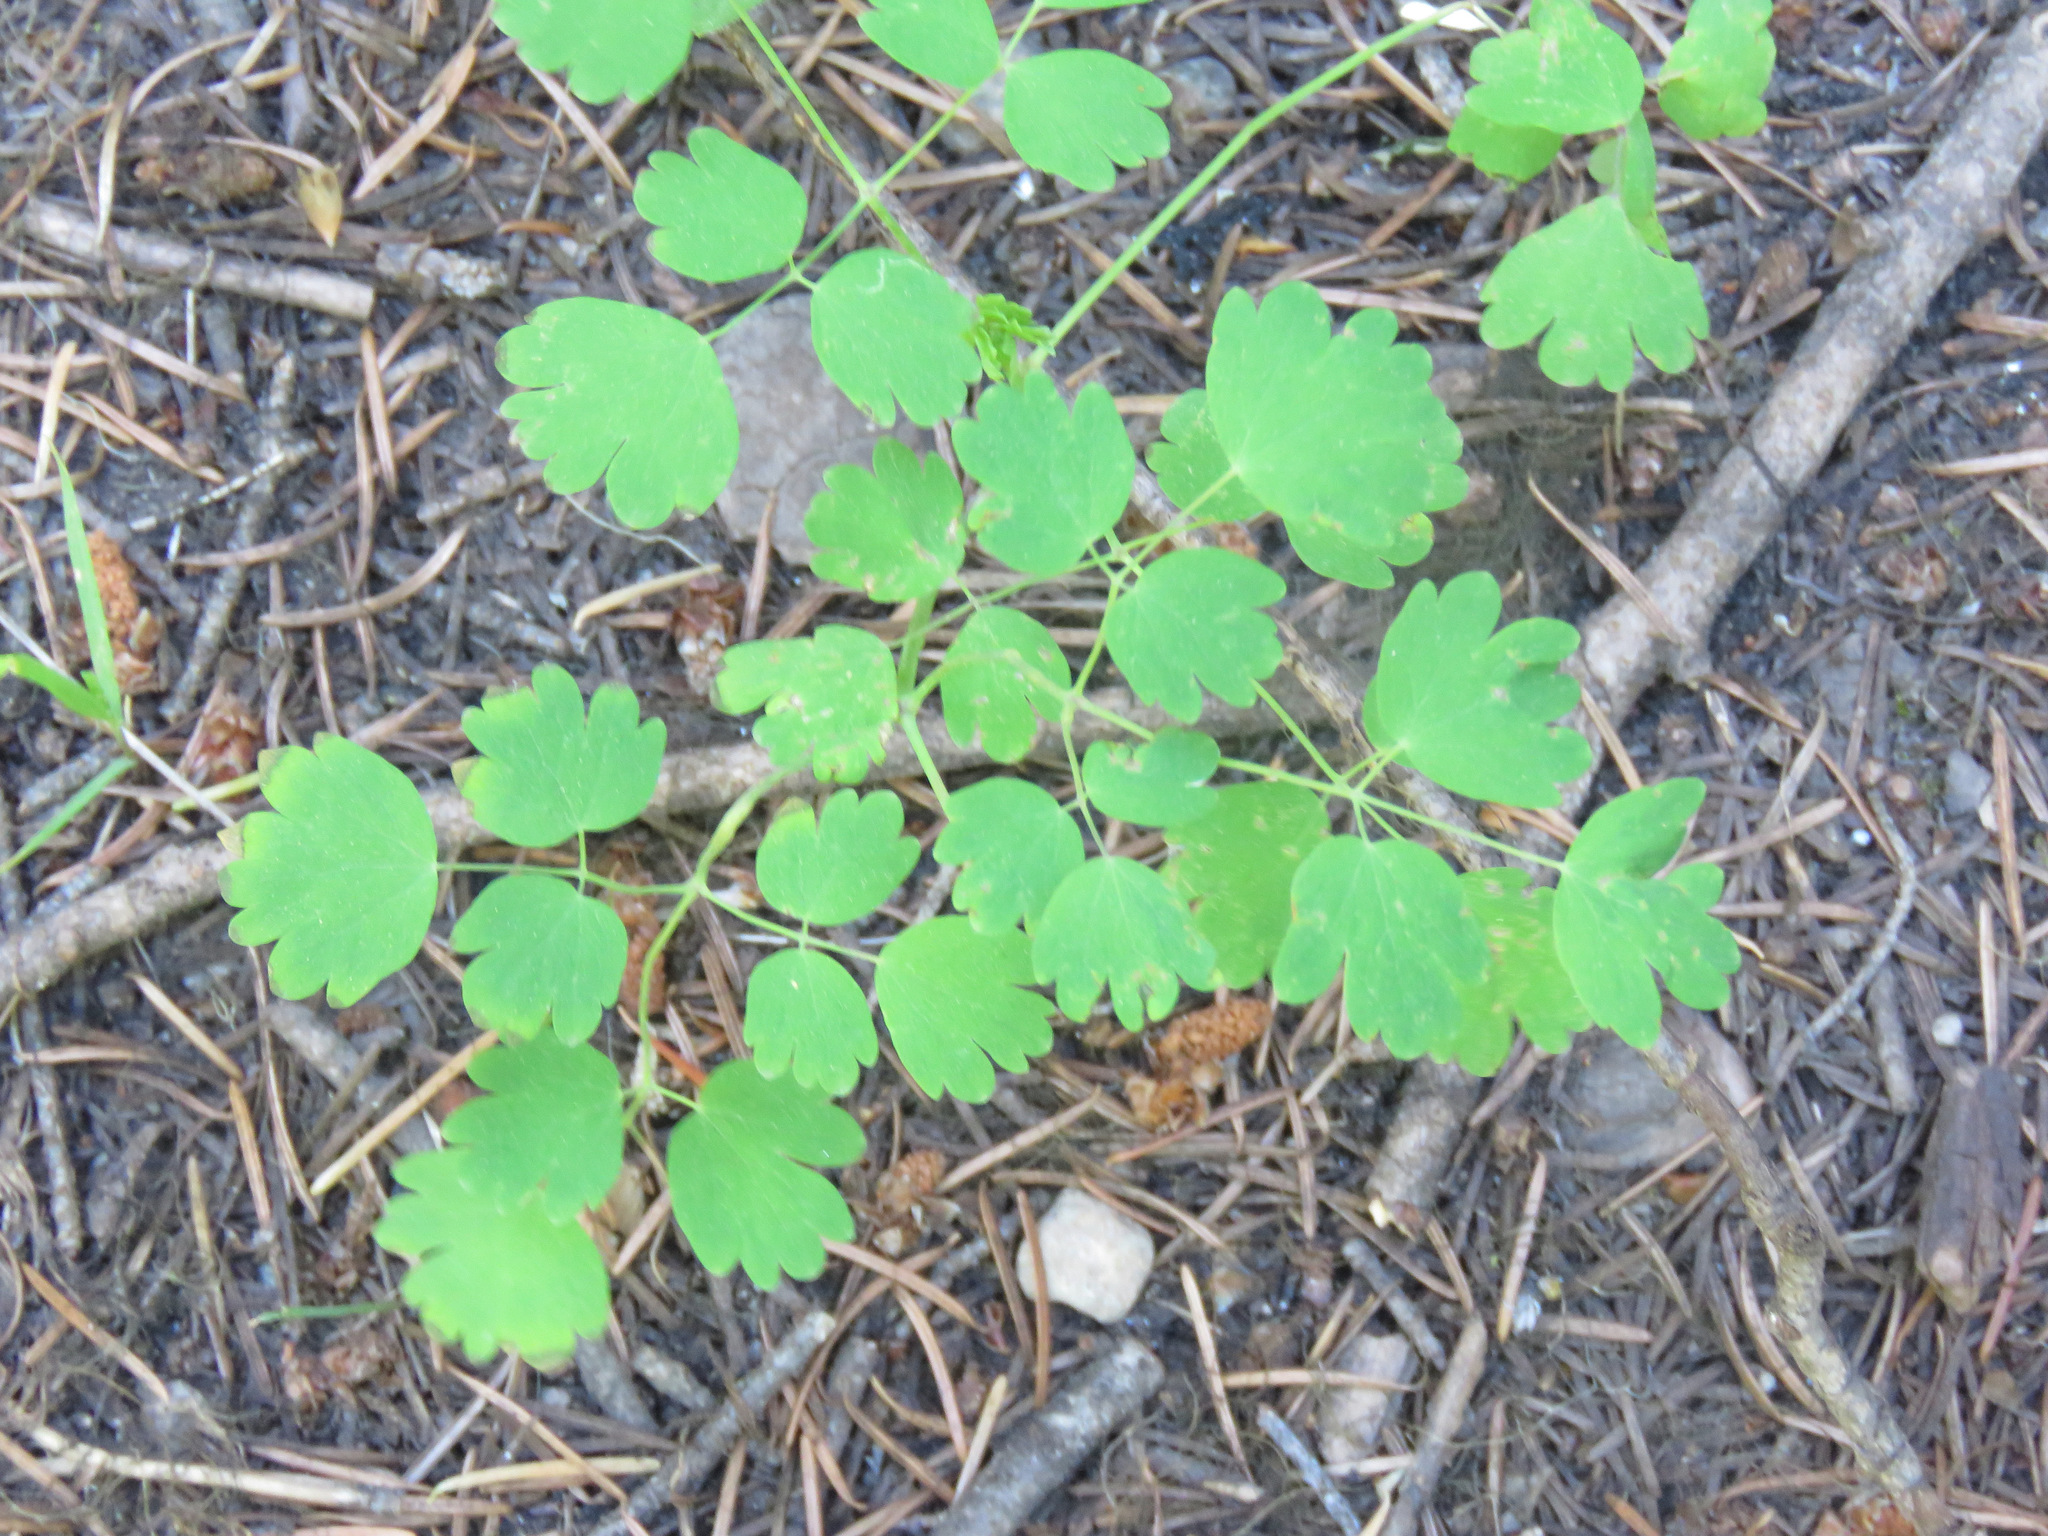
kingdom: Plantae
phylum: Tracheophyta
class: Magnoliopsida
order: Ranunculales
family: Ranunculaceae
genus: Thalictrum
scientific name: Thalictrum occidentale
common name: Western meadow-rue
